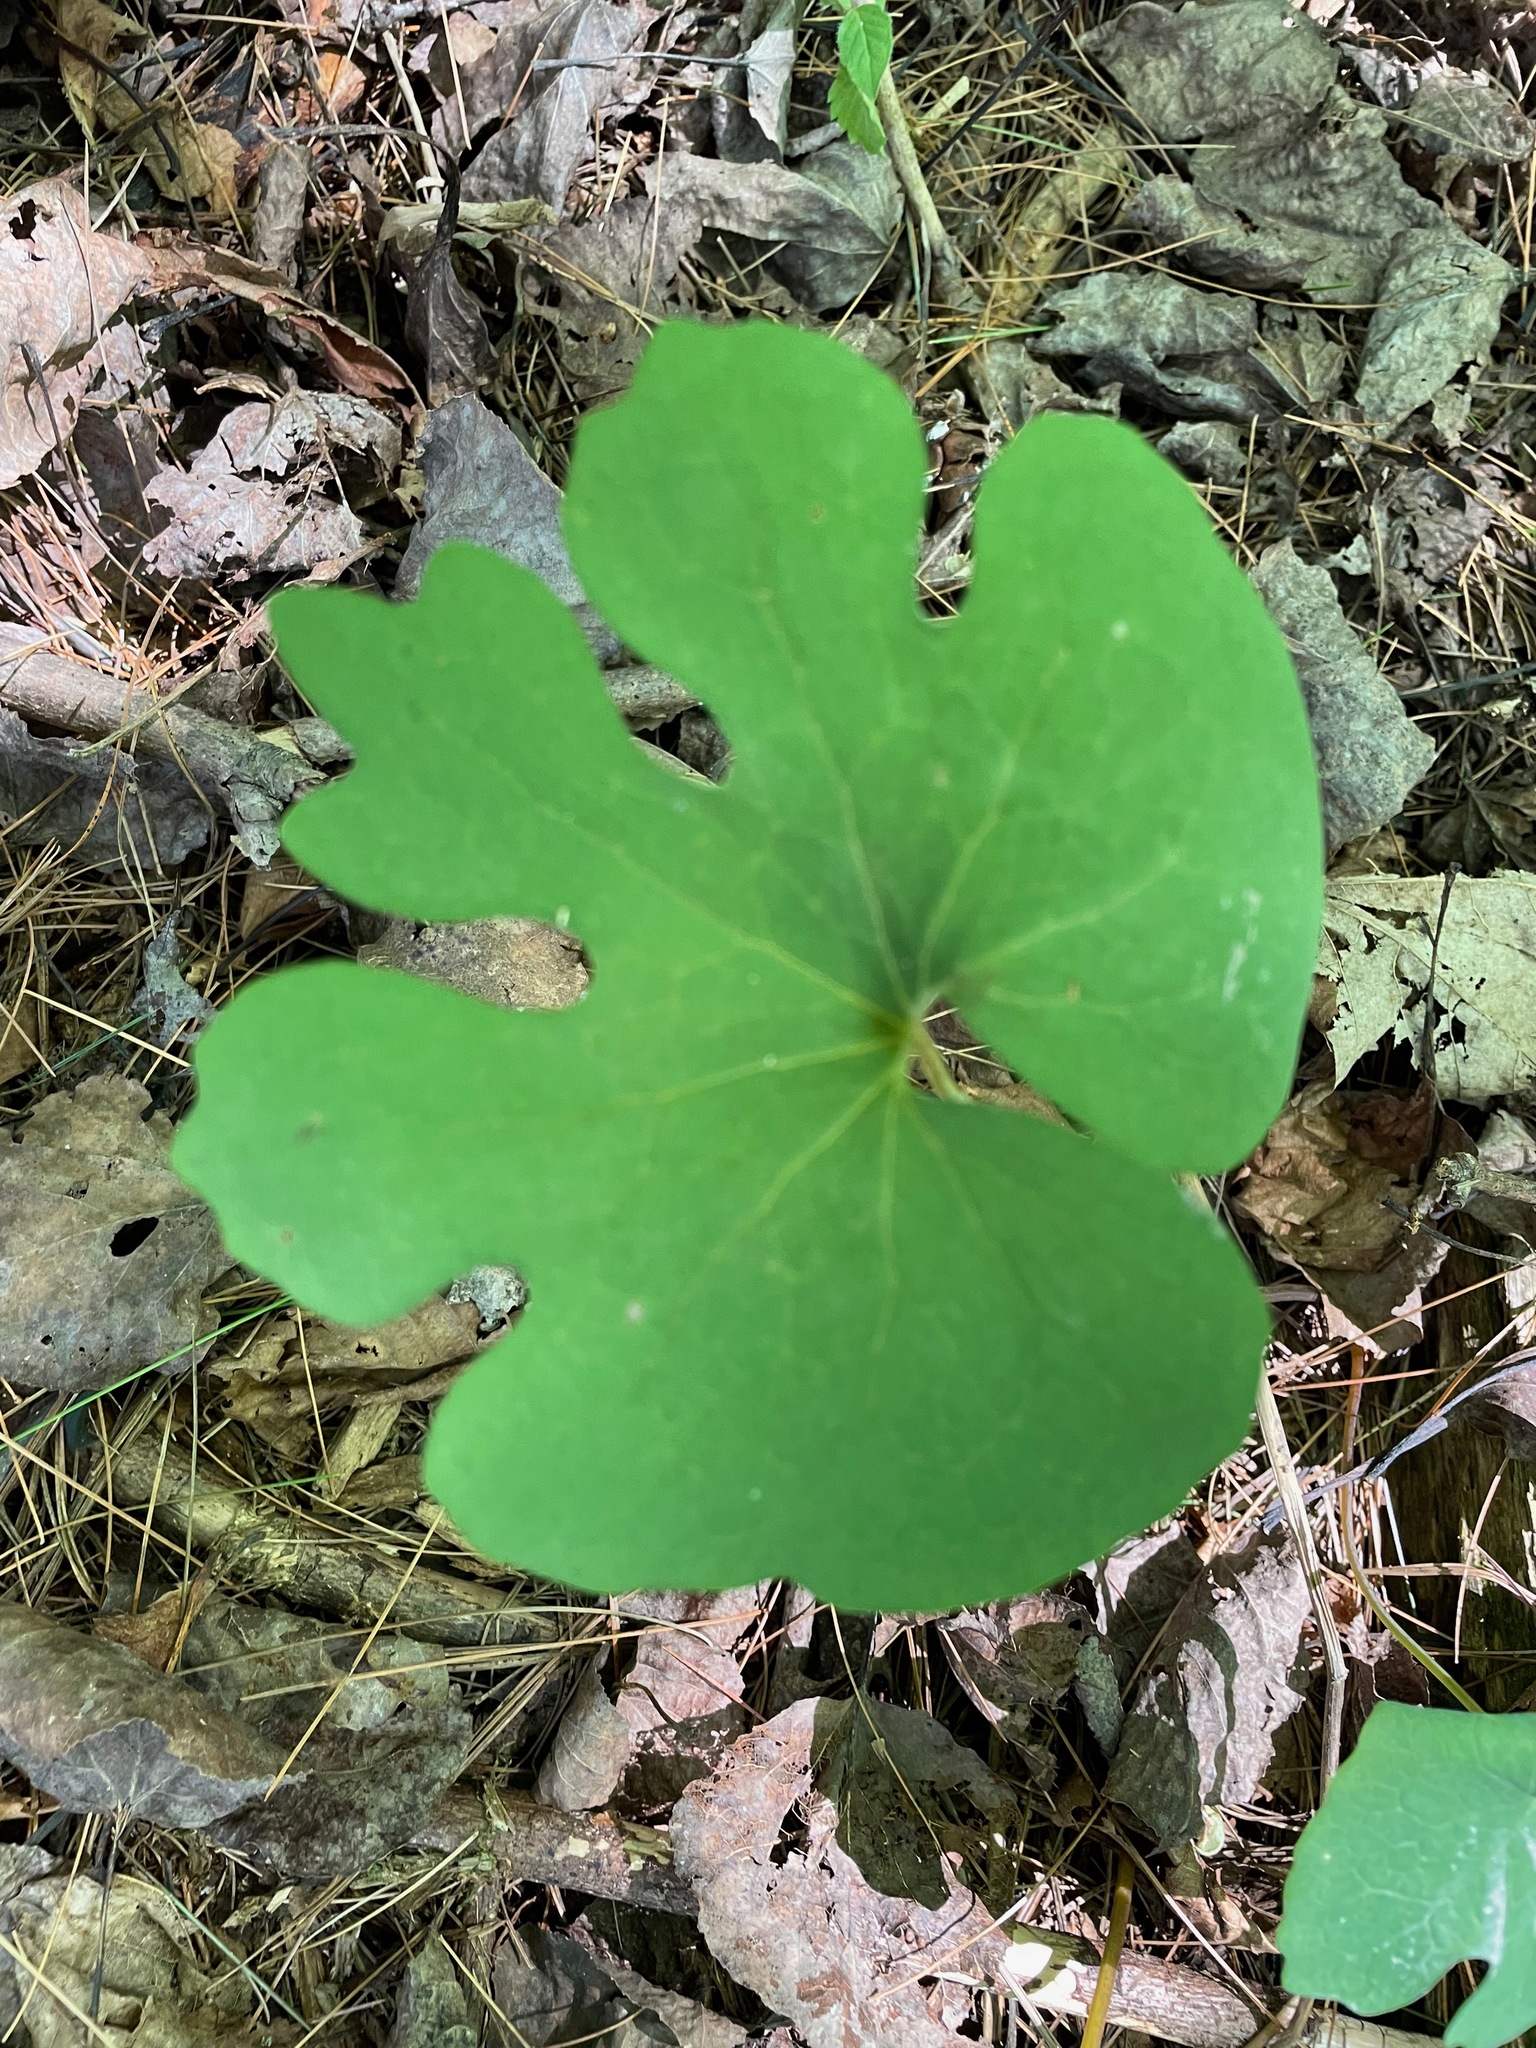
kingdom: Plantae
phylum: Tracheophyta
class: Magnoliopsida
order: Ranunculales
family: Papaveraceae
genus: Sanguinaria
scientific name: Sanguinaria canadensis
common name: Bloodroot
